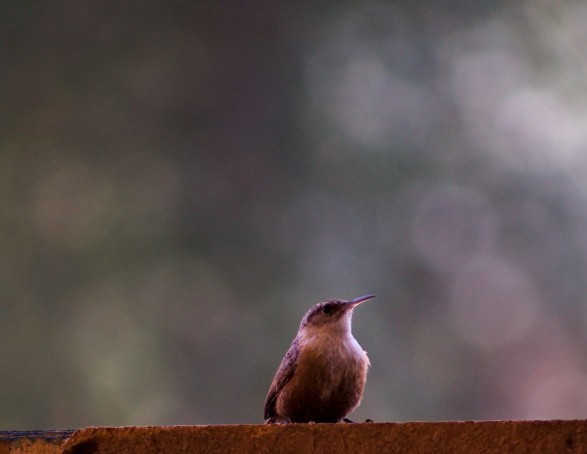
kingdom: Animalia
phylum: Chordata
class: Aves
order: Passeriformes
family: Troglodytidae
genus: Catherpes
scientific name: Catherpes mexicanus
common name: Canyon wren
